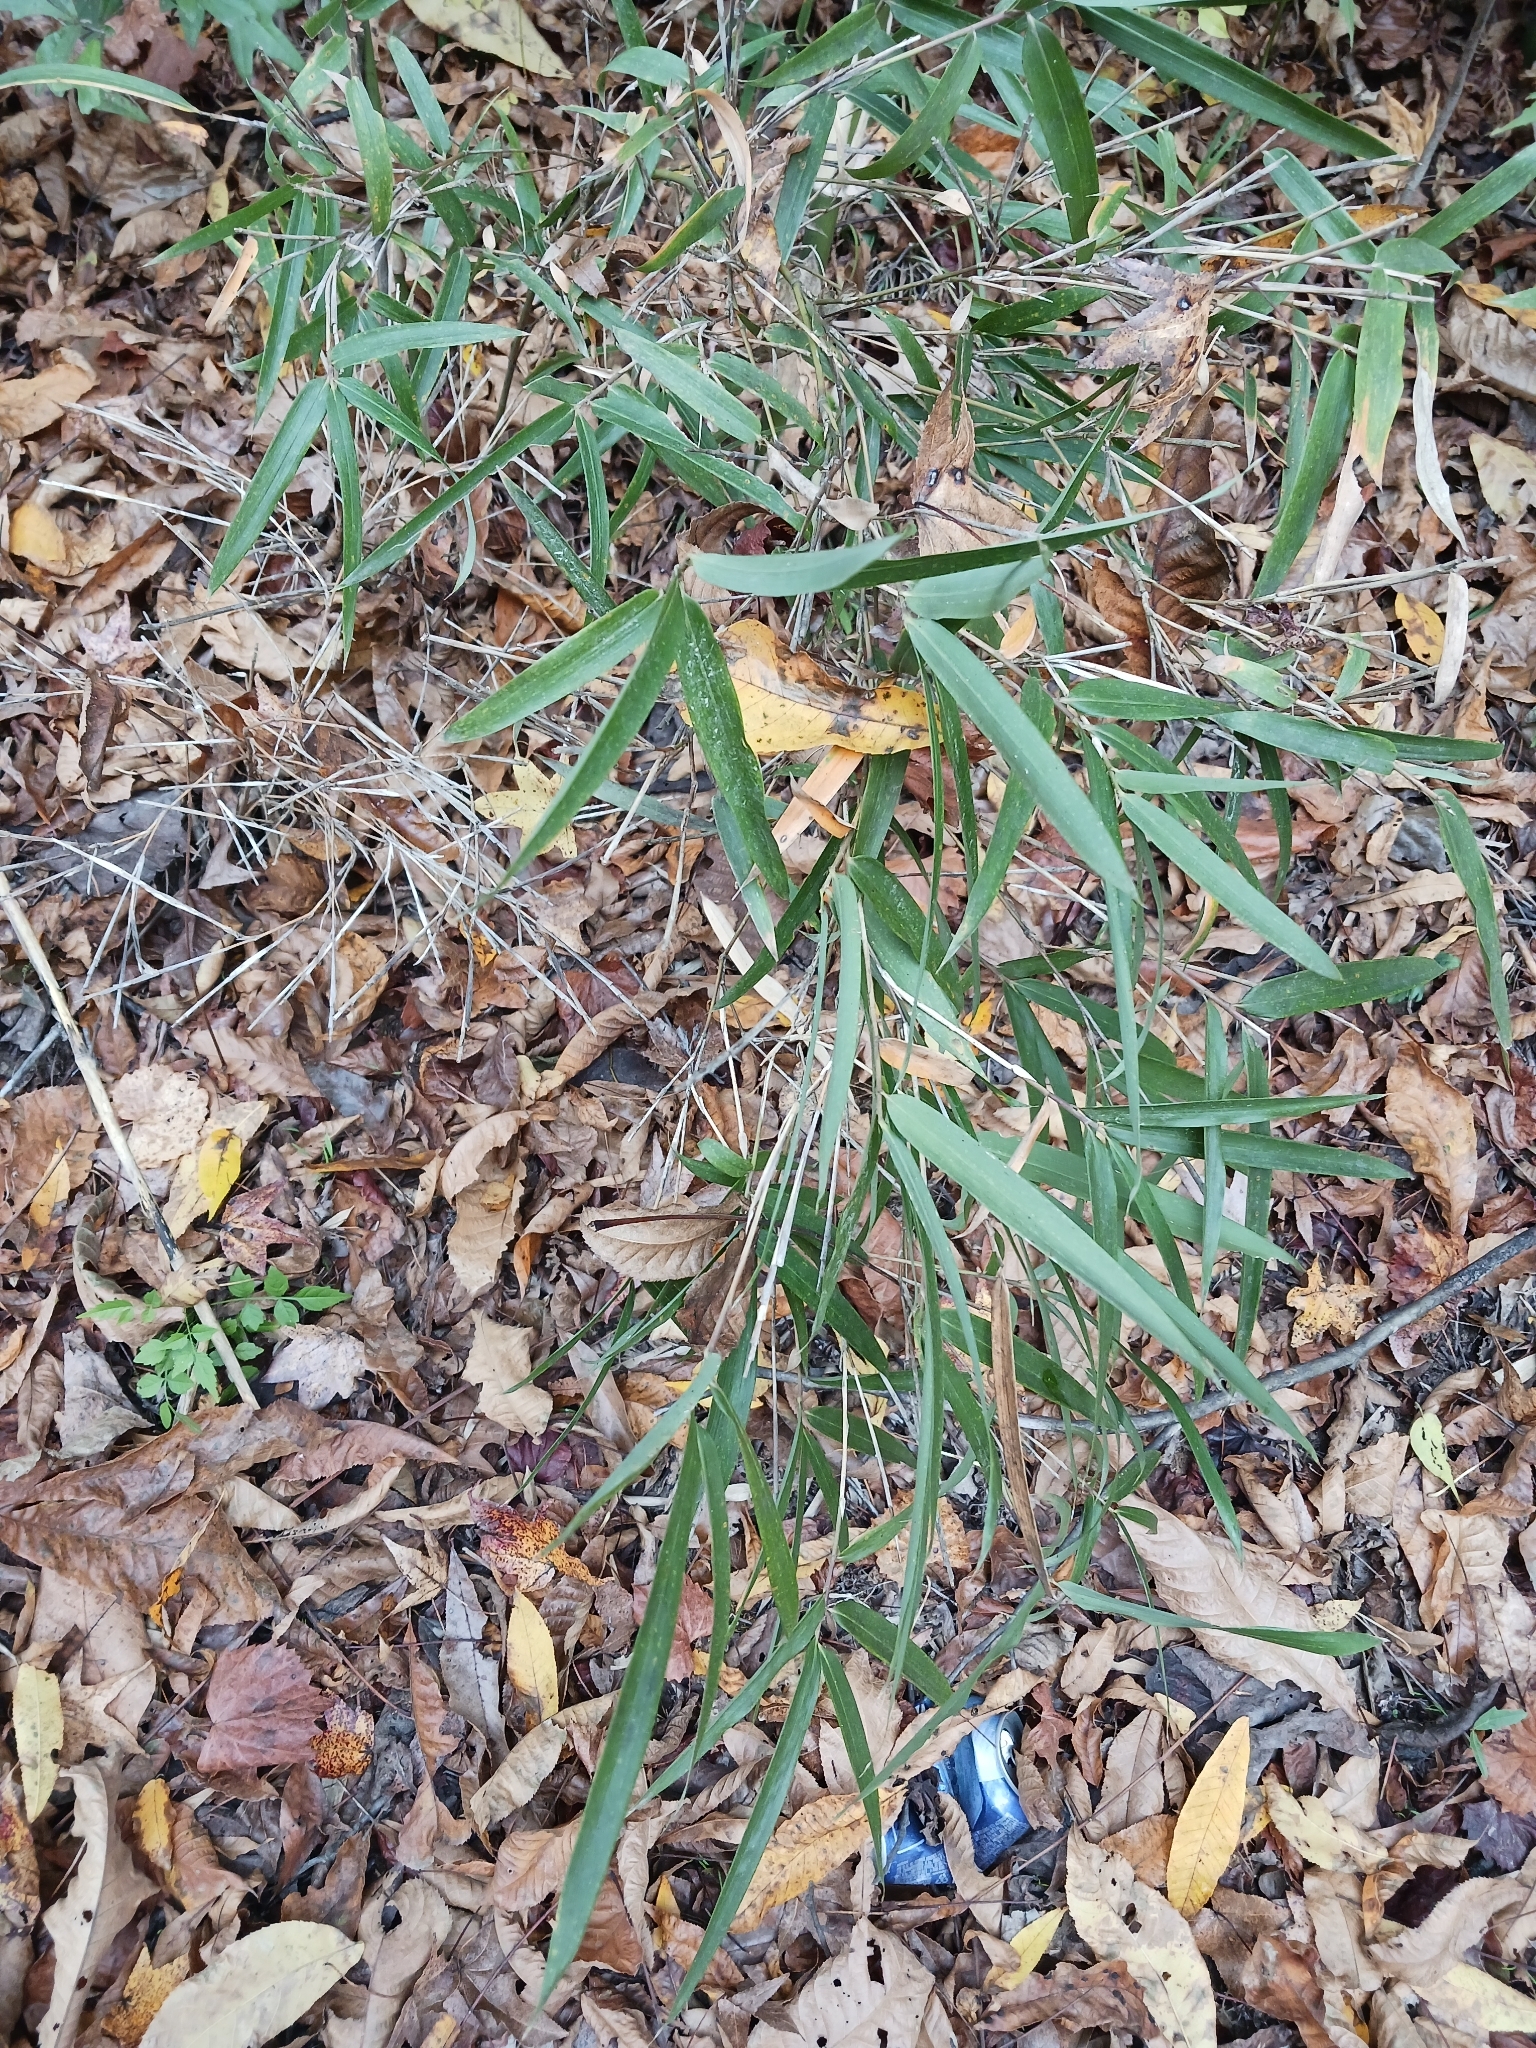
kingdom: Plantae
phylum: Tracheophyta
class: Liliopsida
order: Poales
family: Poaceae
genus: Arundinaria
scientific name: Arundinaria gigantea
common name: Giant cane
